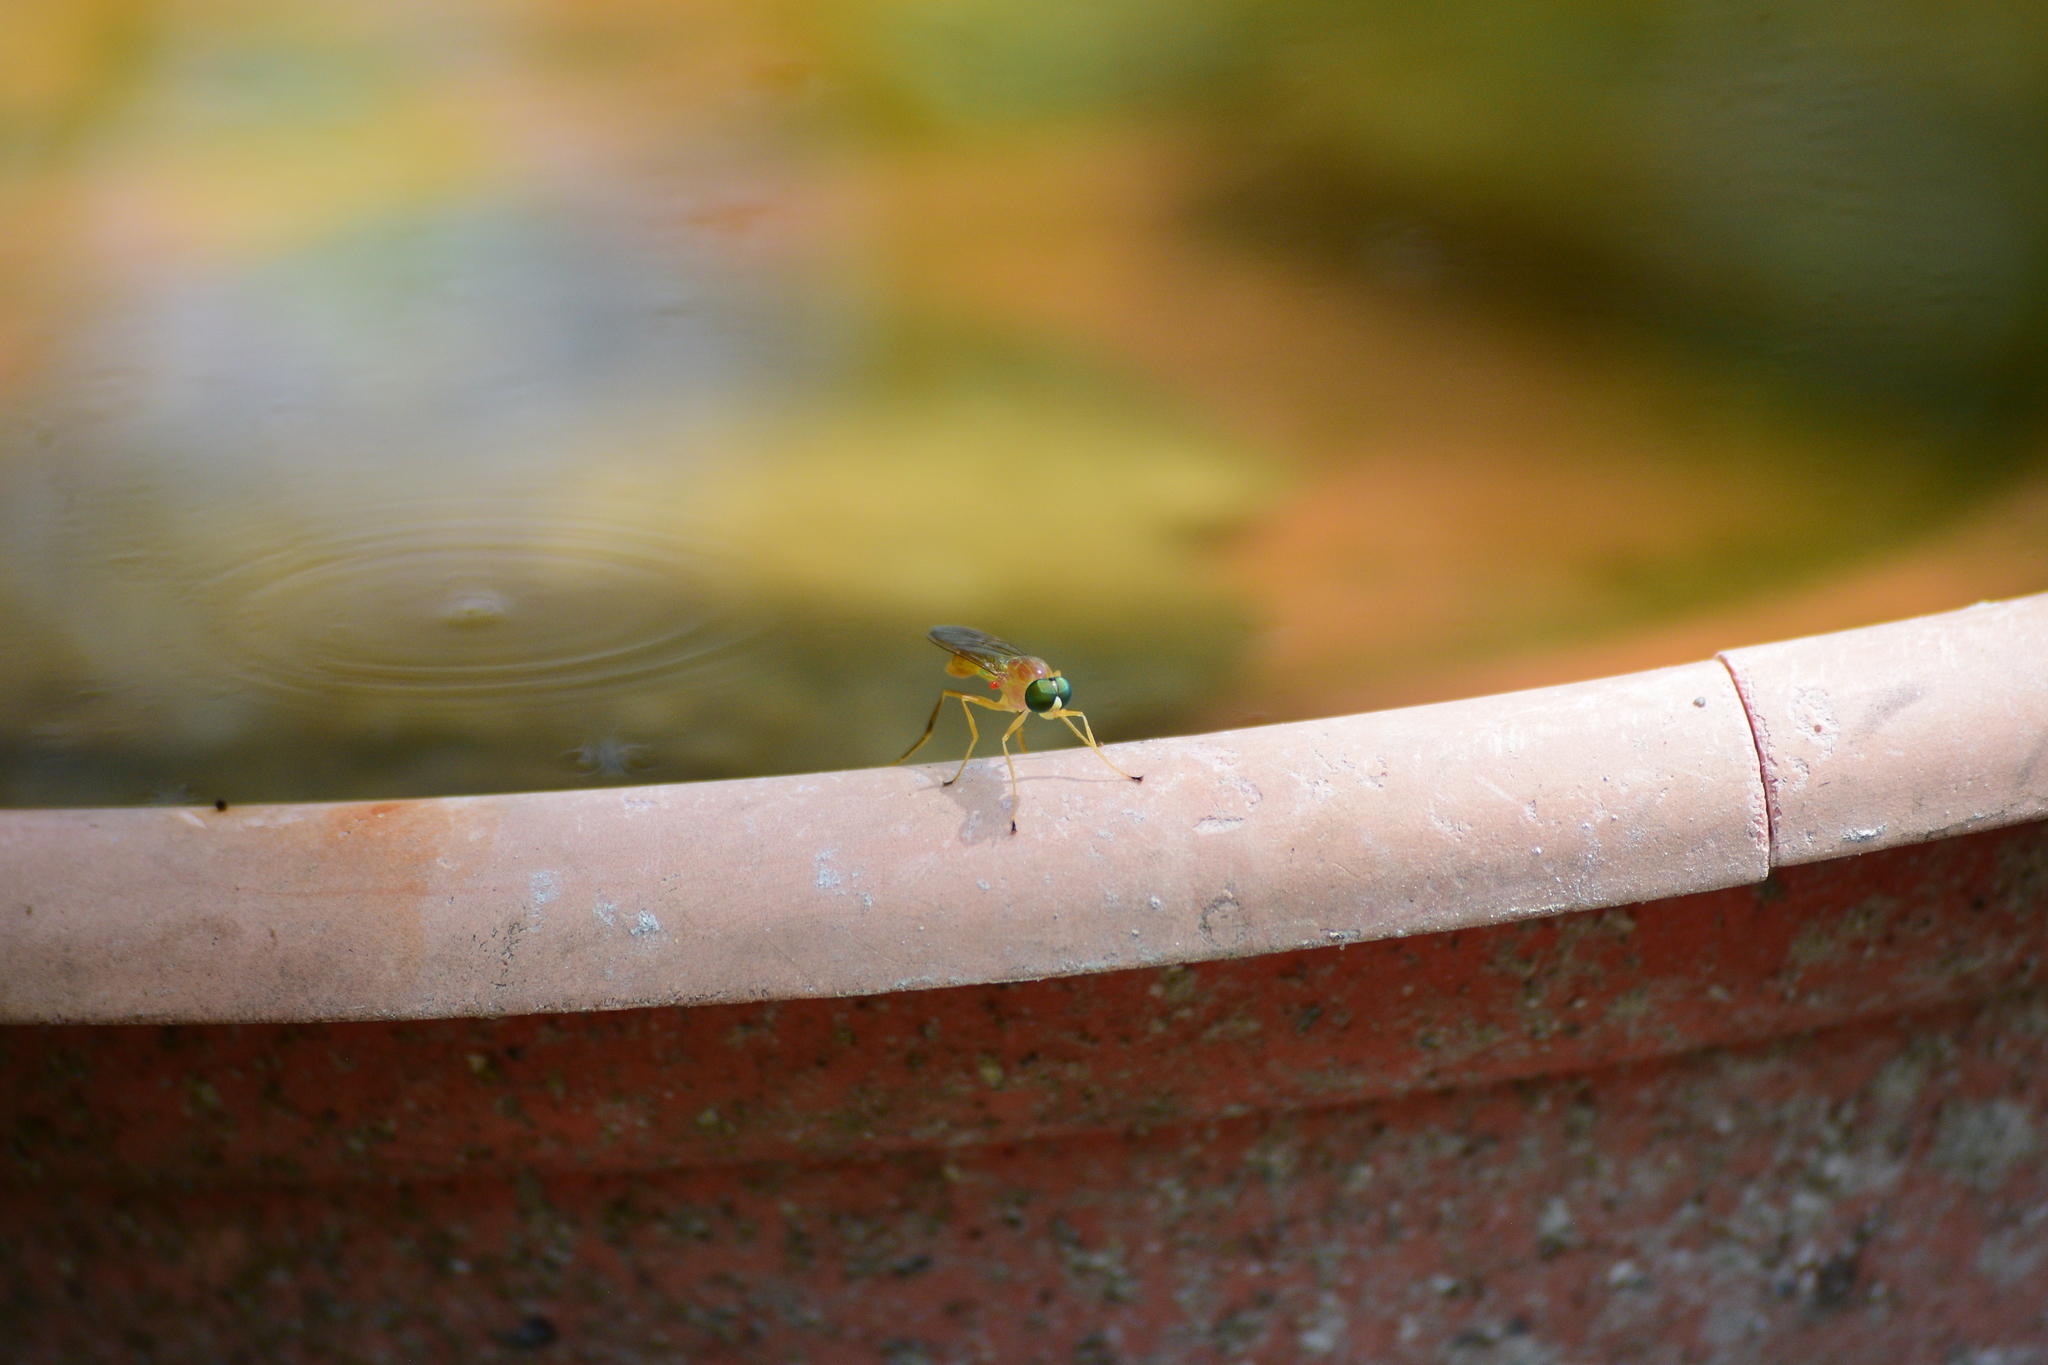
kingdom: Animalia
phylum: Arthropoda
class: Insecta
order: Diptera
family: Stratiomyidae
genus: Ptecticus
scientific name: Ptecticus trivittatus
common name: Compost fly
